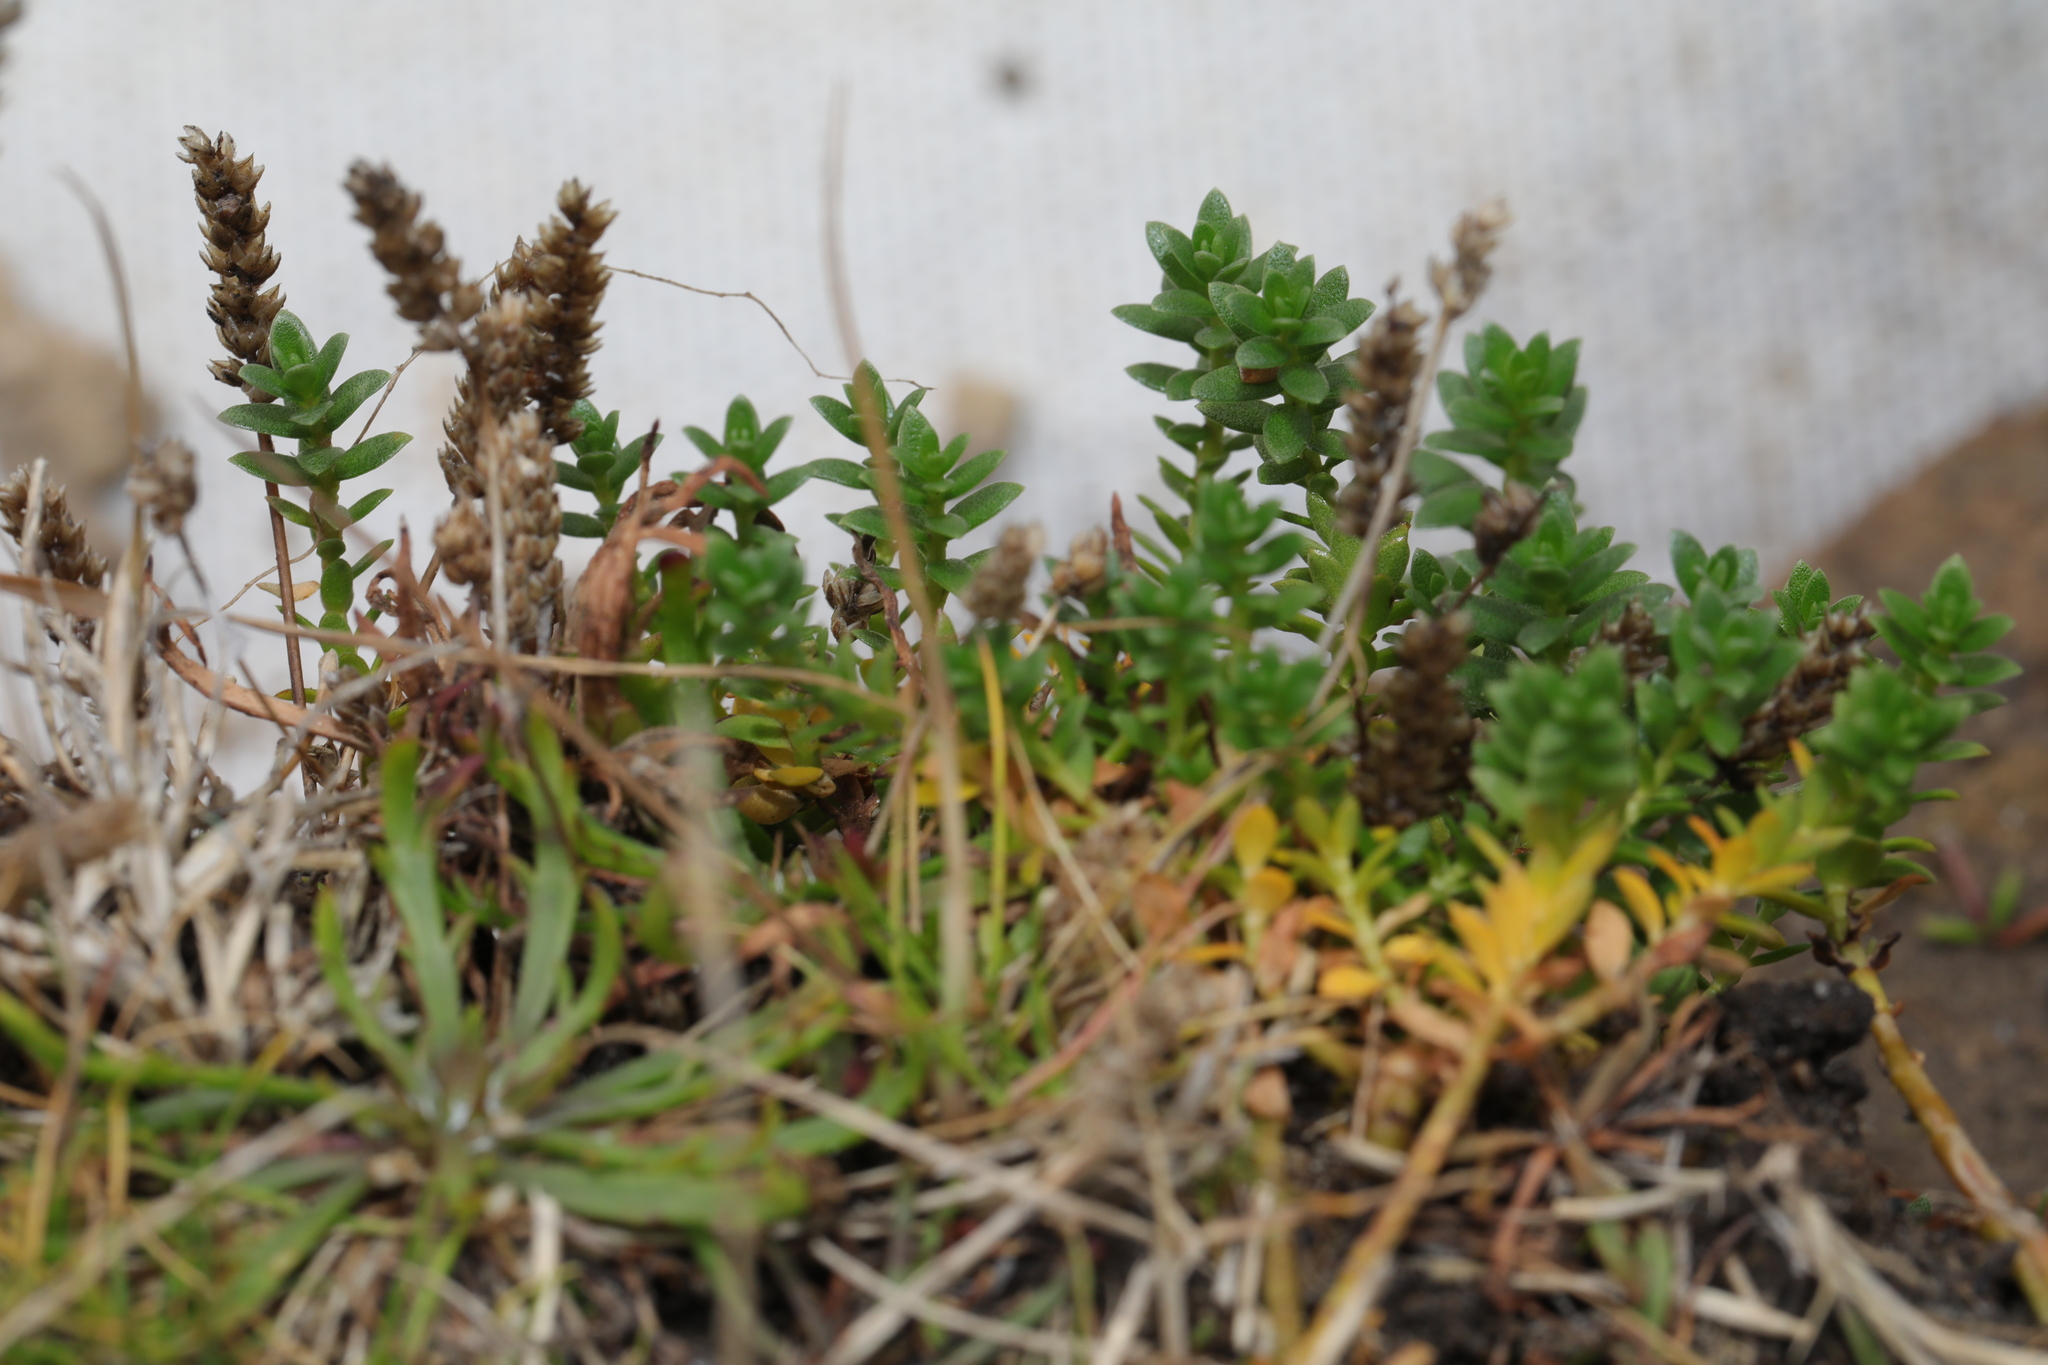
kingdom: Plantae
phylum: Tracheophyta
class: Magnoliopsida
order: Ericales
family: Primulaceae
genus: Lysimachia
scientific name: Lysimachia maritima
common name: Sea milkwort
